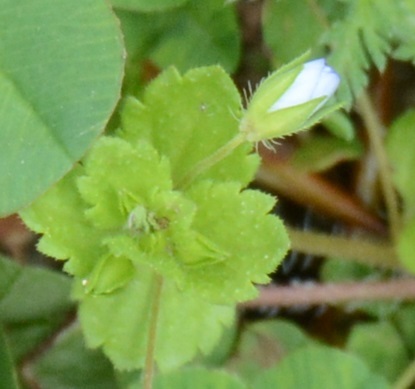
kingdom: Plantae
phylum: Tracheophyta
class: Magnoliopsida
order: Lamiales
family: Plantaginaceae
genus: Veronica
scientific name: Veronica persica
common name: Common field-speedwell
